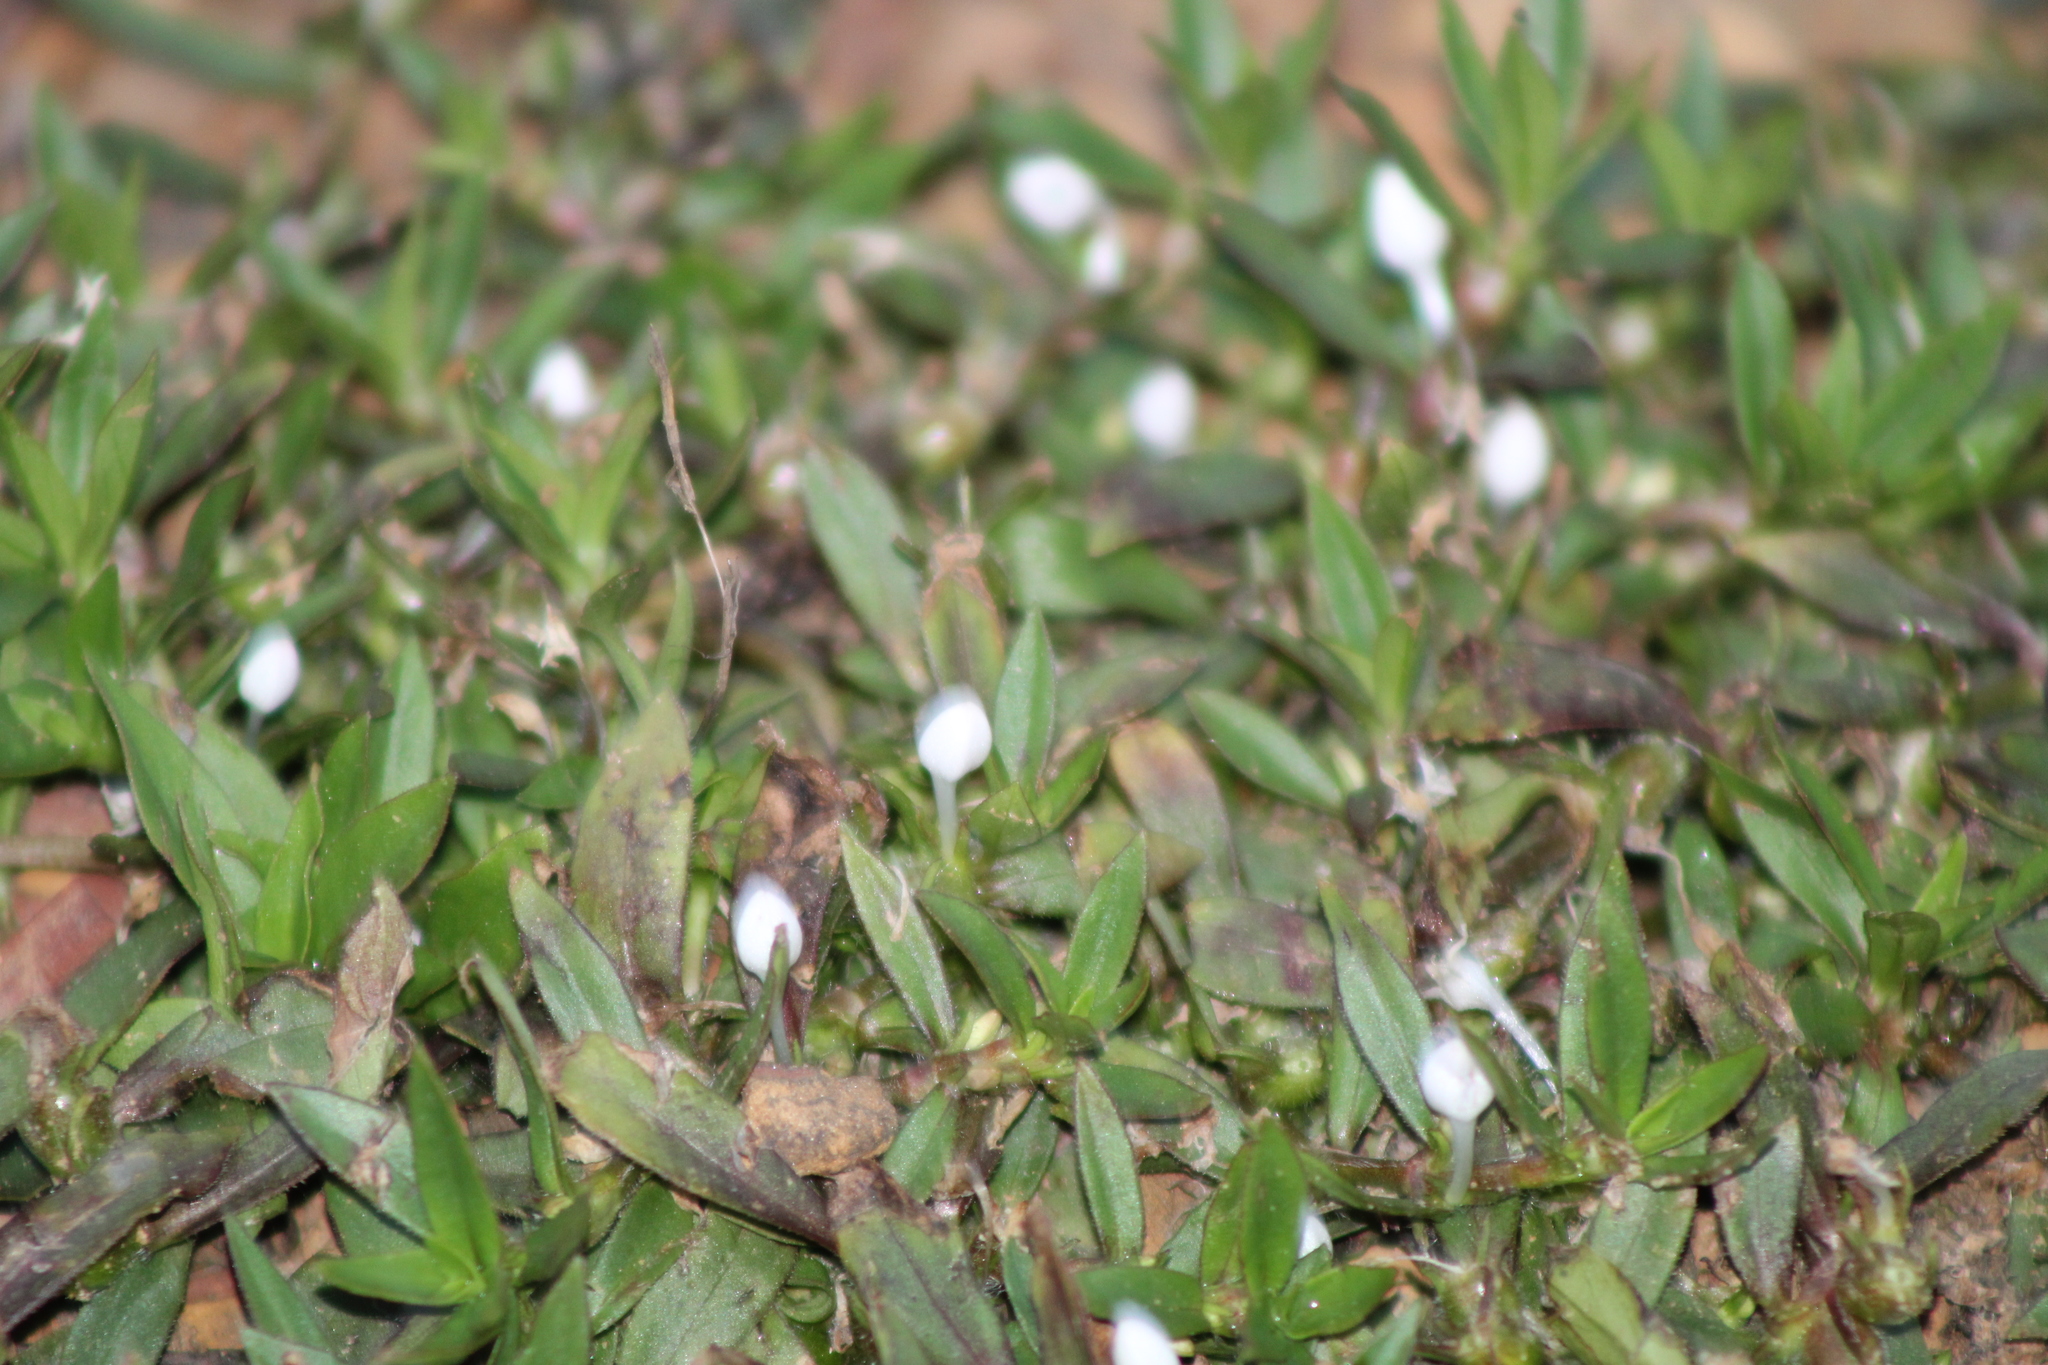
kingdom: Plantae
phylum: Tracheophyta
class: Magnoliopsida
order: Gentianales
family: Rubiaceae
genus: Diodia
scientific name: Diodia virginiana
